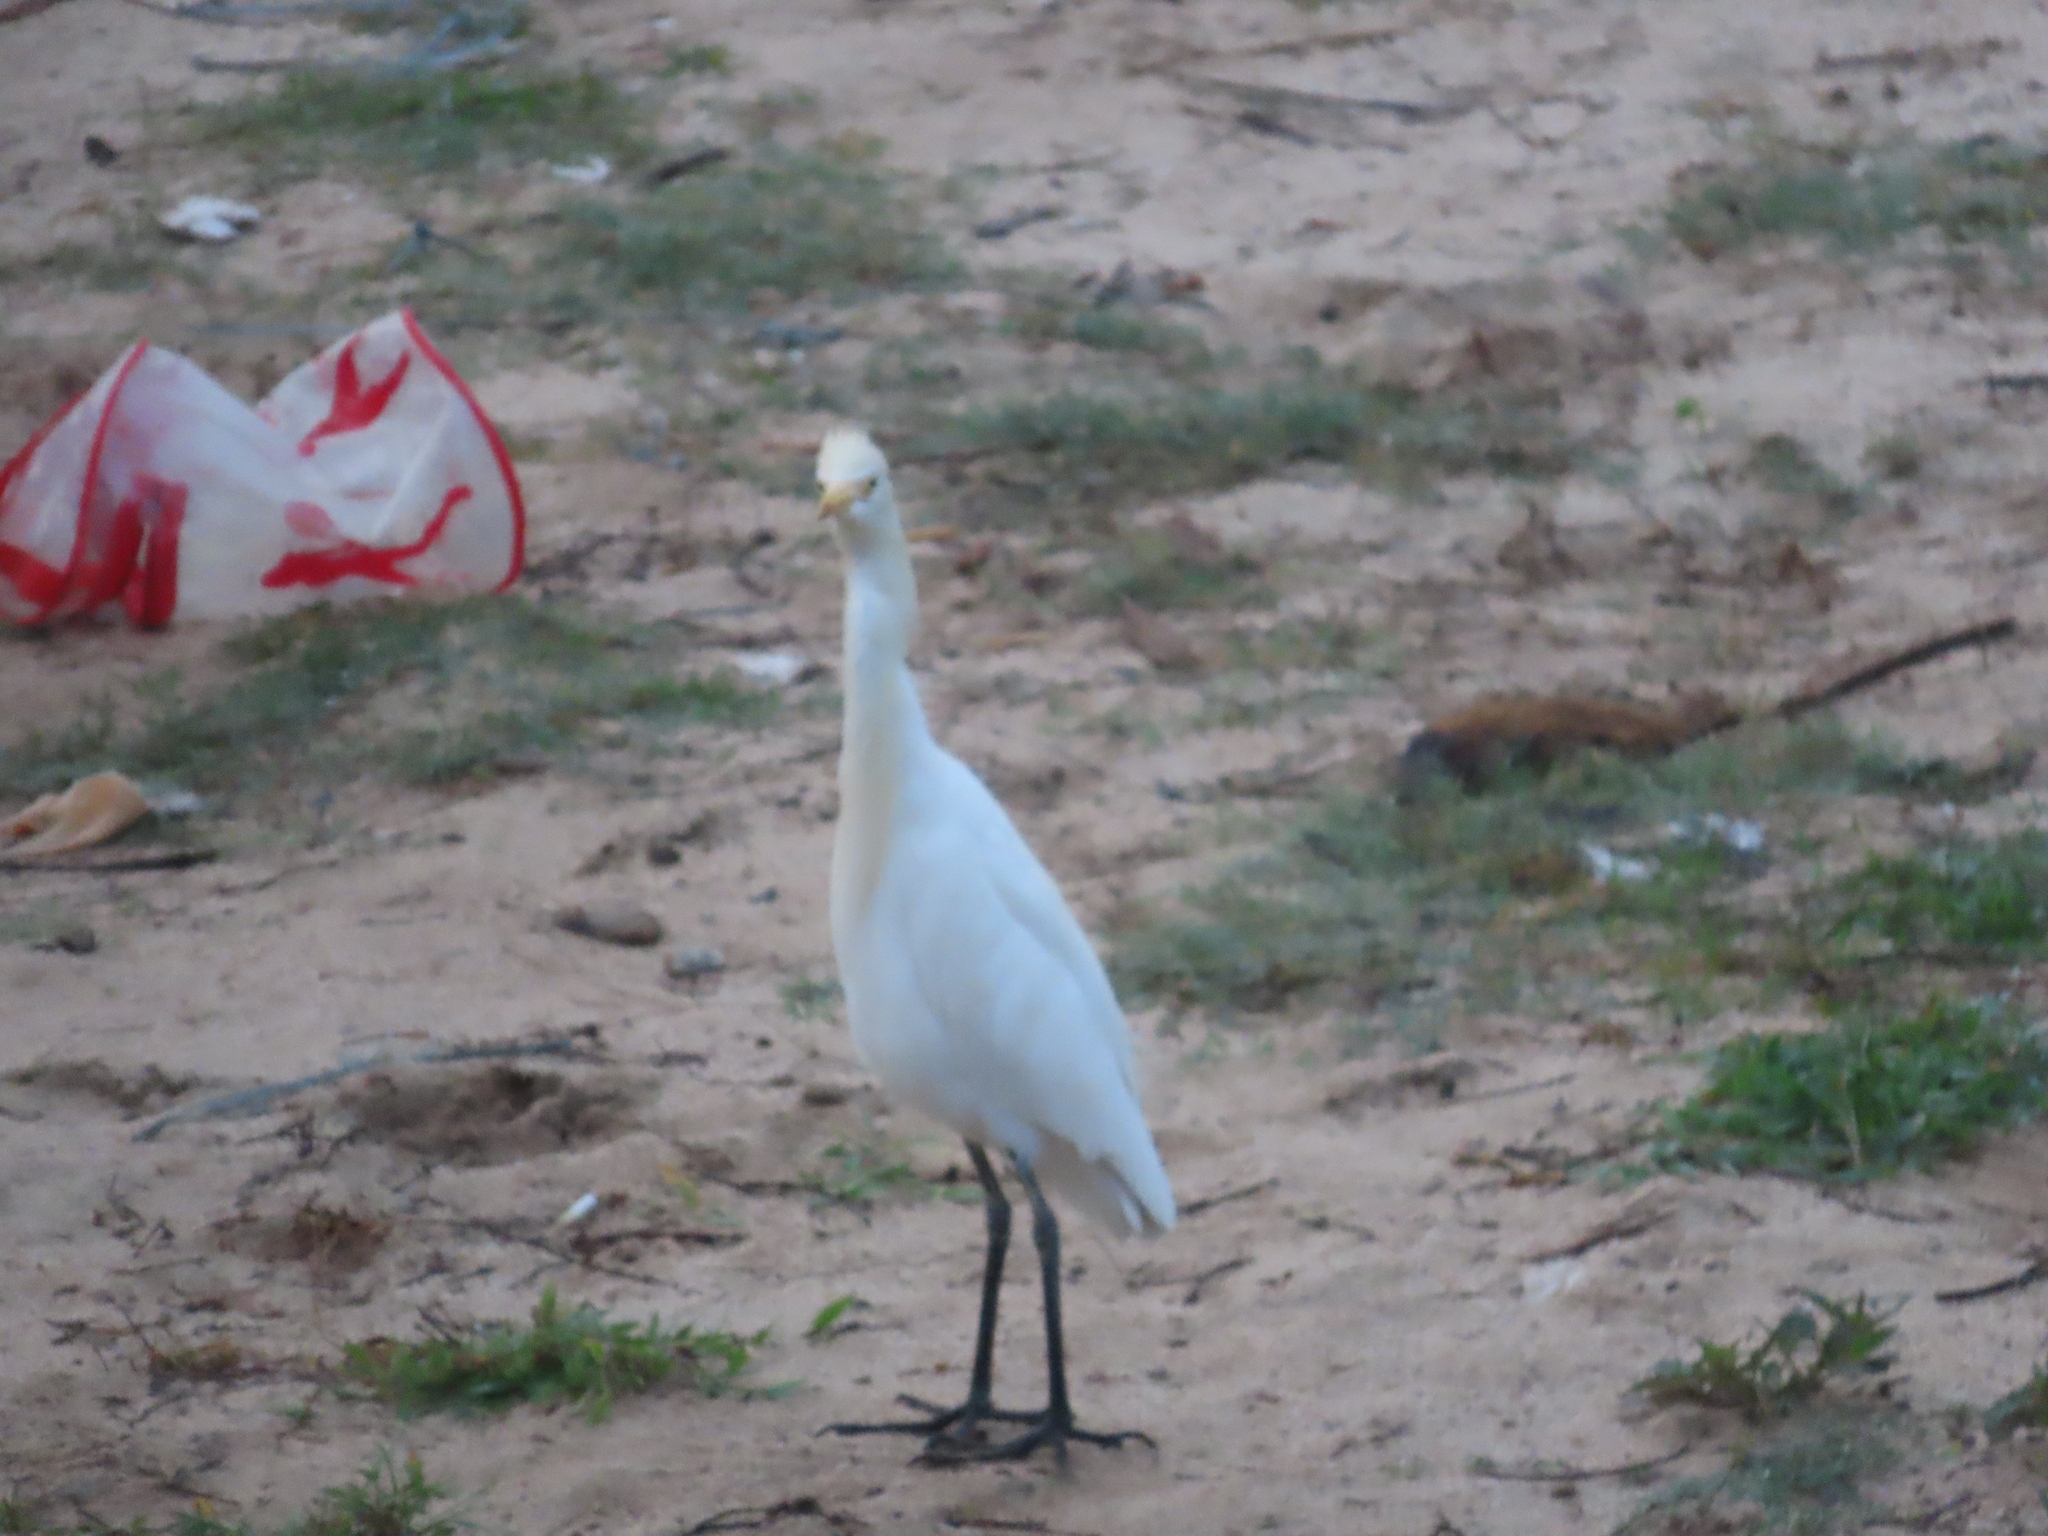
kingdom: Animalia
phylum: Chordata
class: Aves
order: Pelecaniformes
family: Ardeidae
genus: Bubulcus
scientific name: Bubulcus coromandus
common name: Eastern cattle egret
